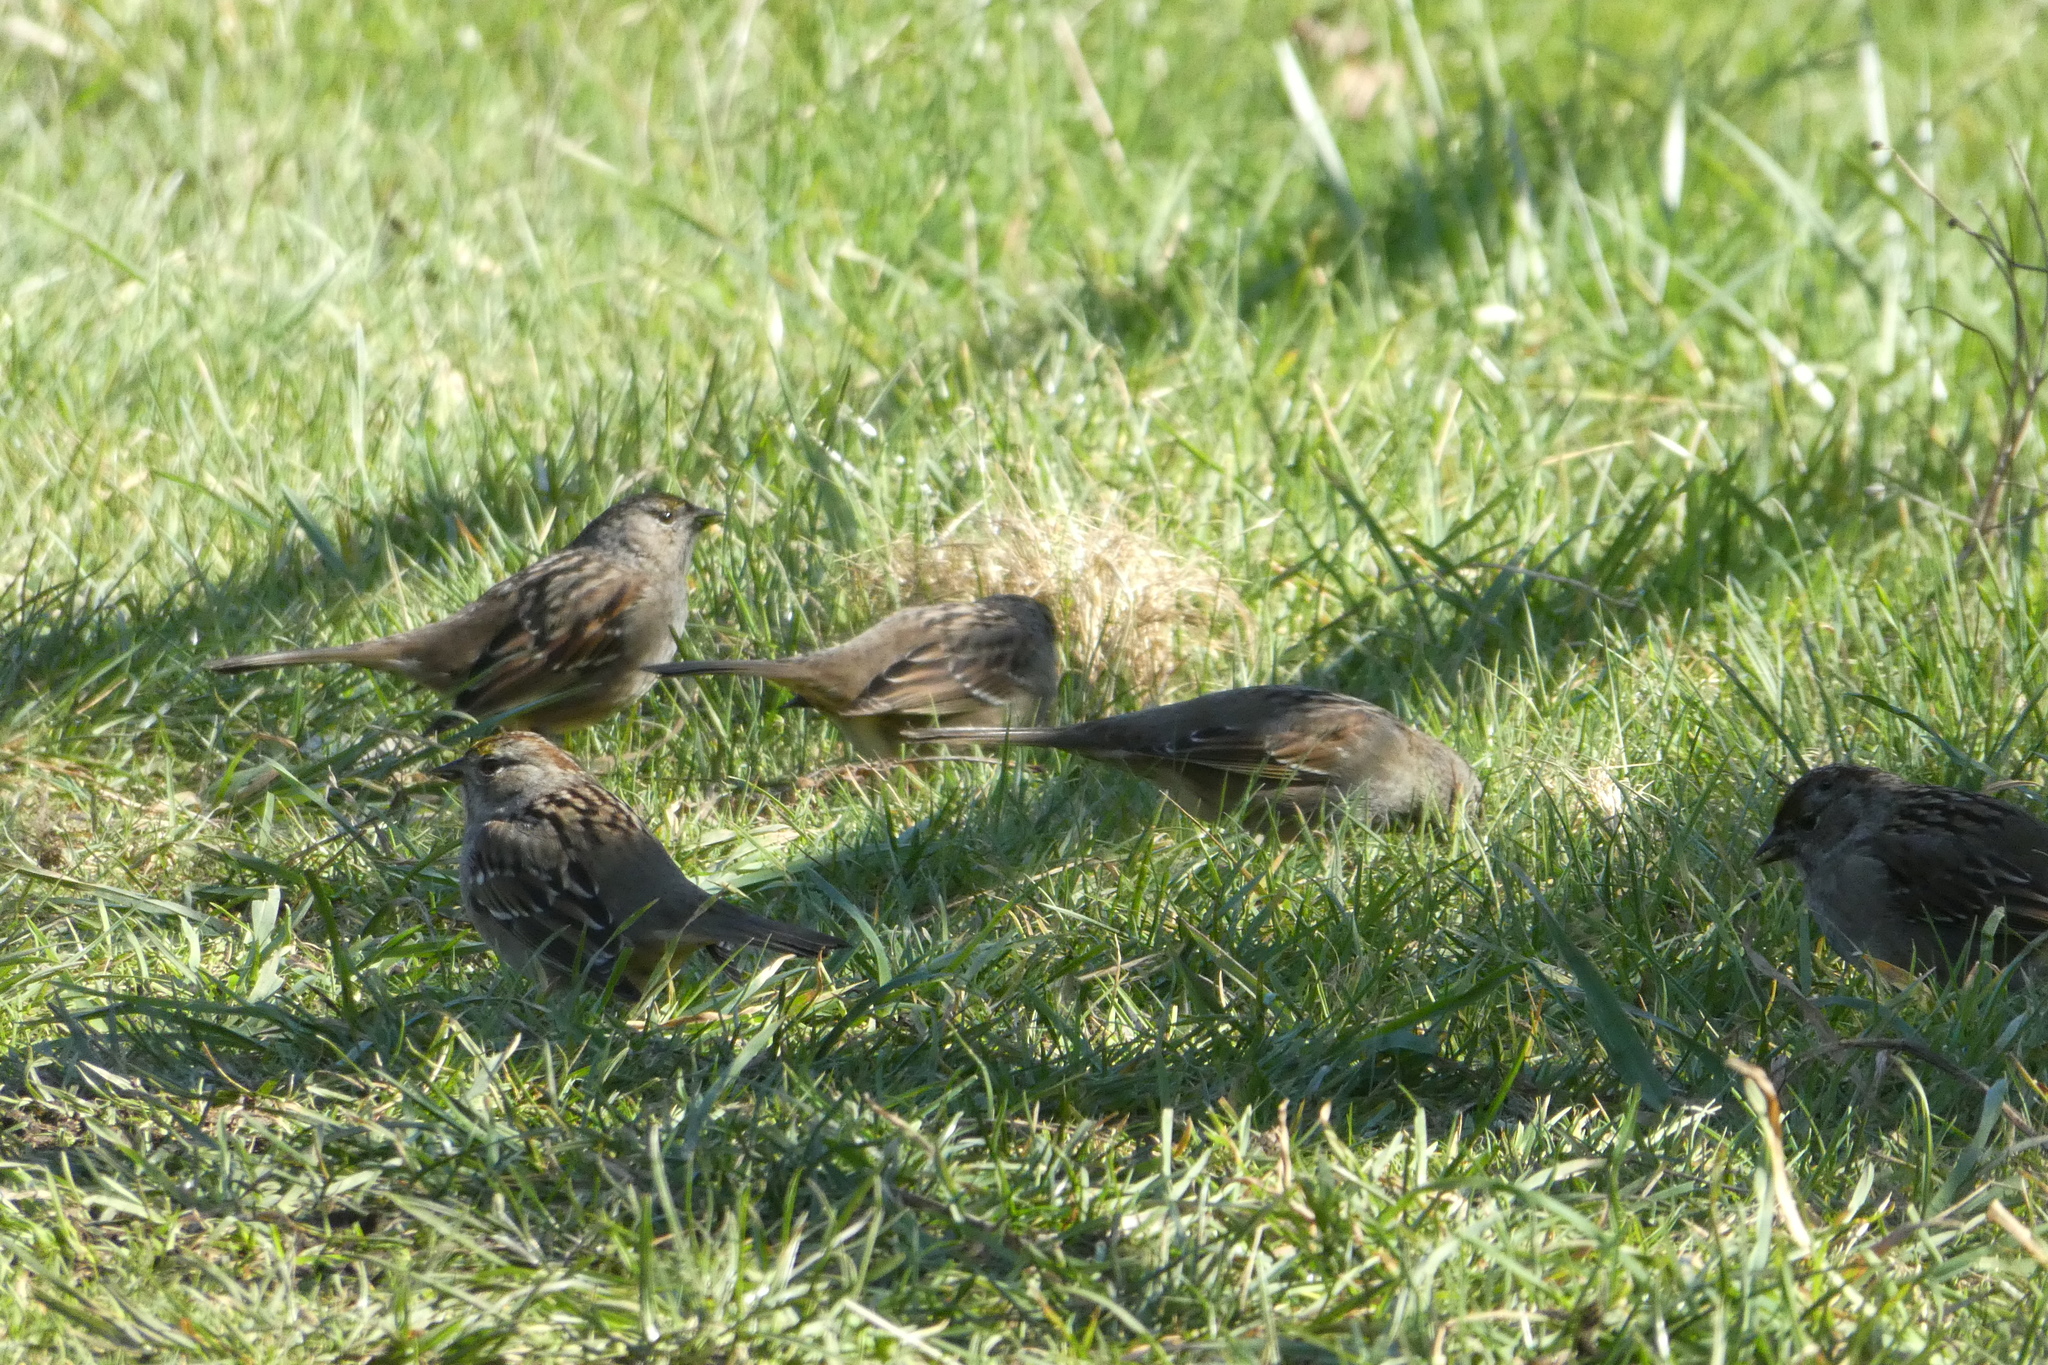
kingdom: Animalia
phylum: Chordata
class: Aves
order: Passeriformes
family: Passerellidae
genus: Zonotrichia
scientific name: Zonotrichia atricapilla
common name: Golden-crowned sparrow
